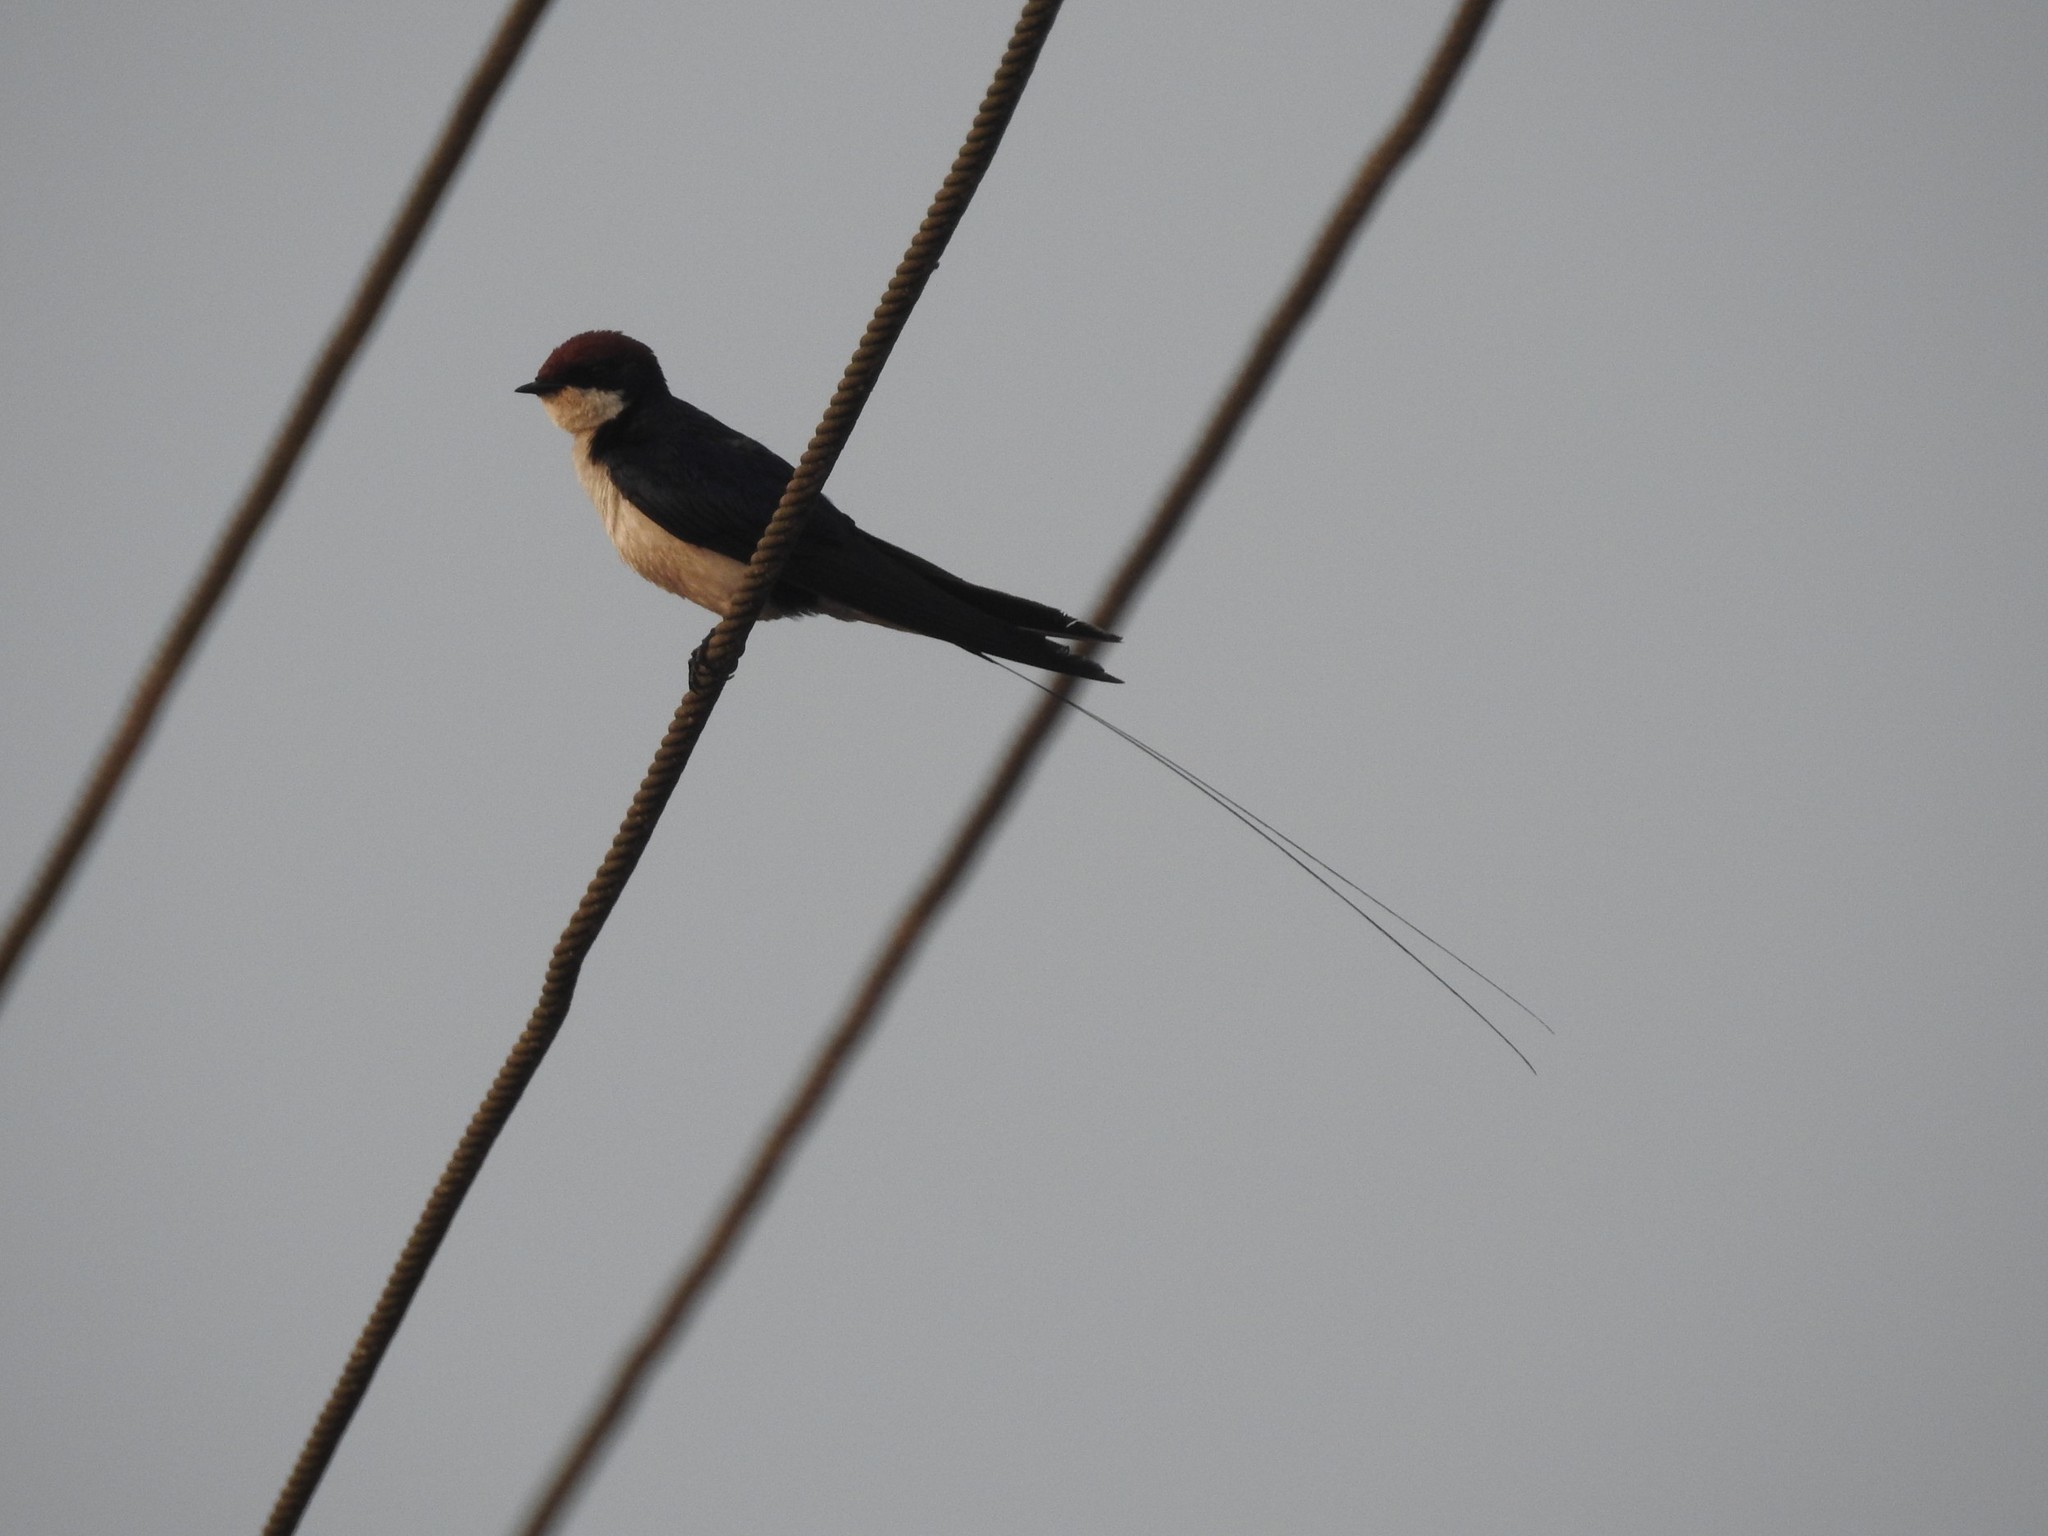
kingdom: Animalia
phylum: Chordata
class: Aves
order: Passeriformes
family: Hirundinidae
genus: Hirundo
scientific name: Hirundo smithii
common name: Wire-tailed swallow
